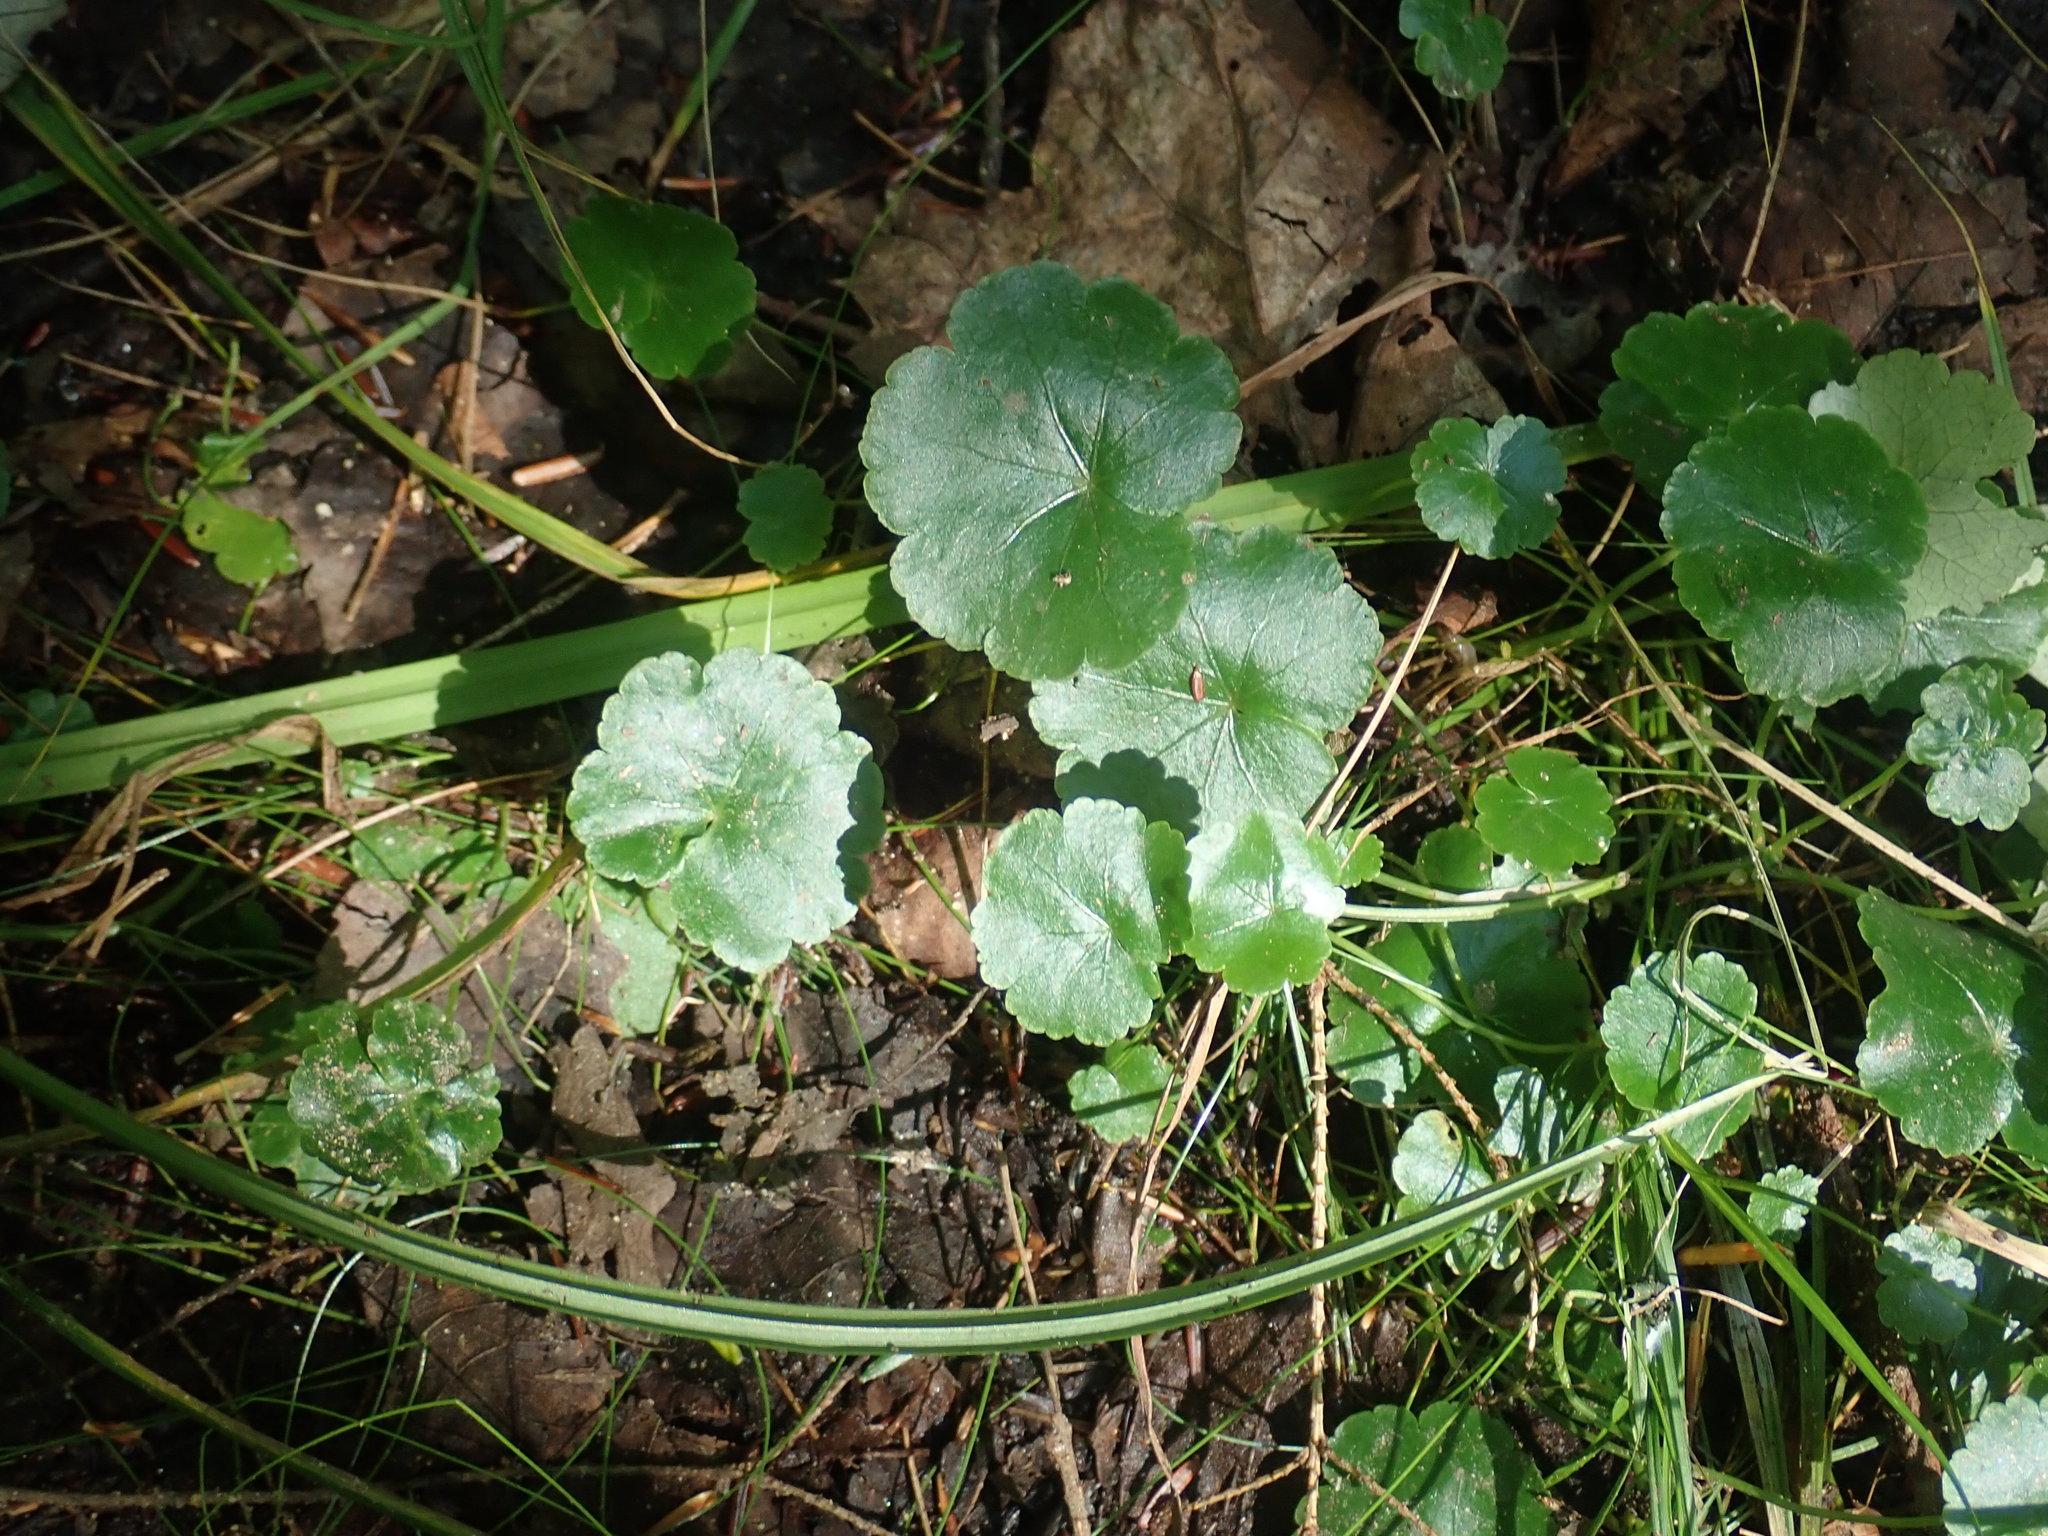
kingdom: Plantae
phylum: Tracheophyta
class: Magnoliopsida
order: Apiales
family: Araliaceae
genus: Hydrocotyle
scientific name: Hydrocotyle americana
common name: American water-pennywort
